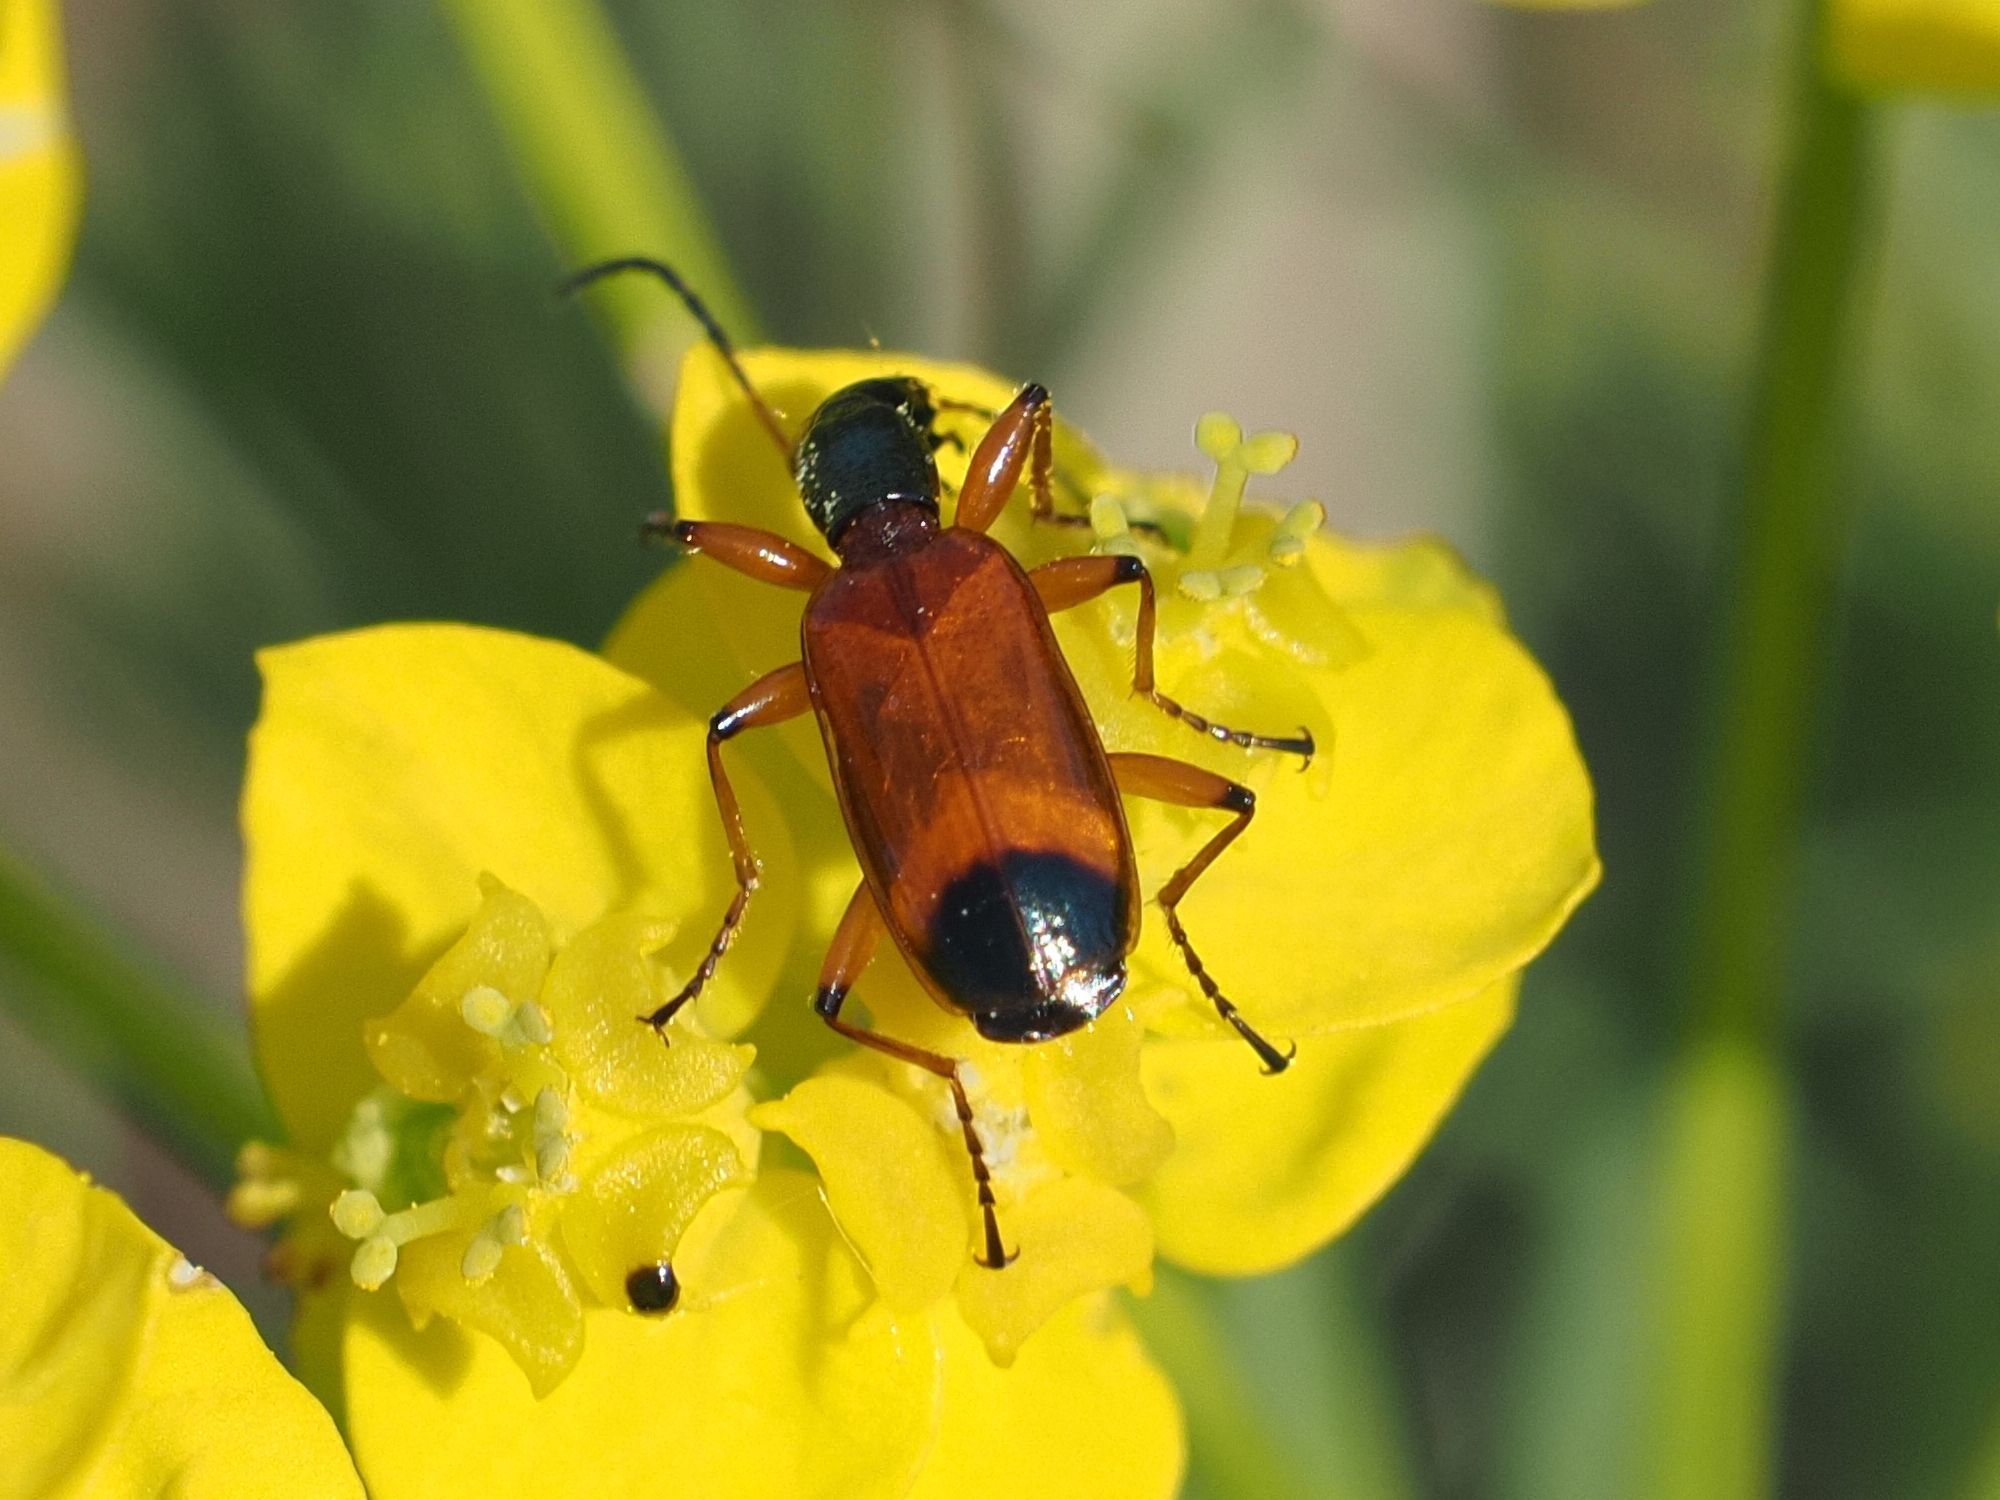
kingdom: Animalia
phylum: Arthropoda
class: Insecta
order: Coleoptera
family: Carabidae
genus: Odacantha
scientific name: Odacantha melanura
